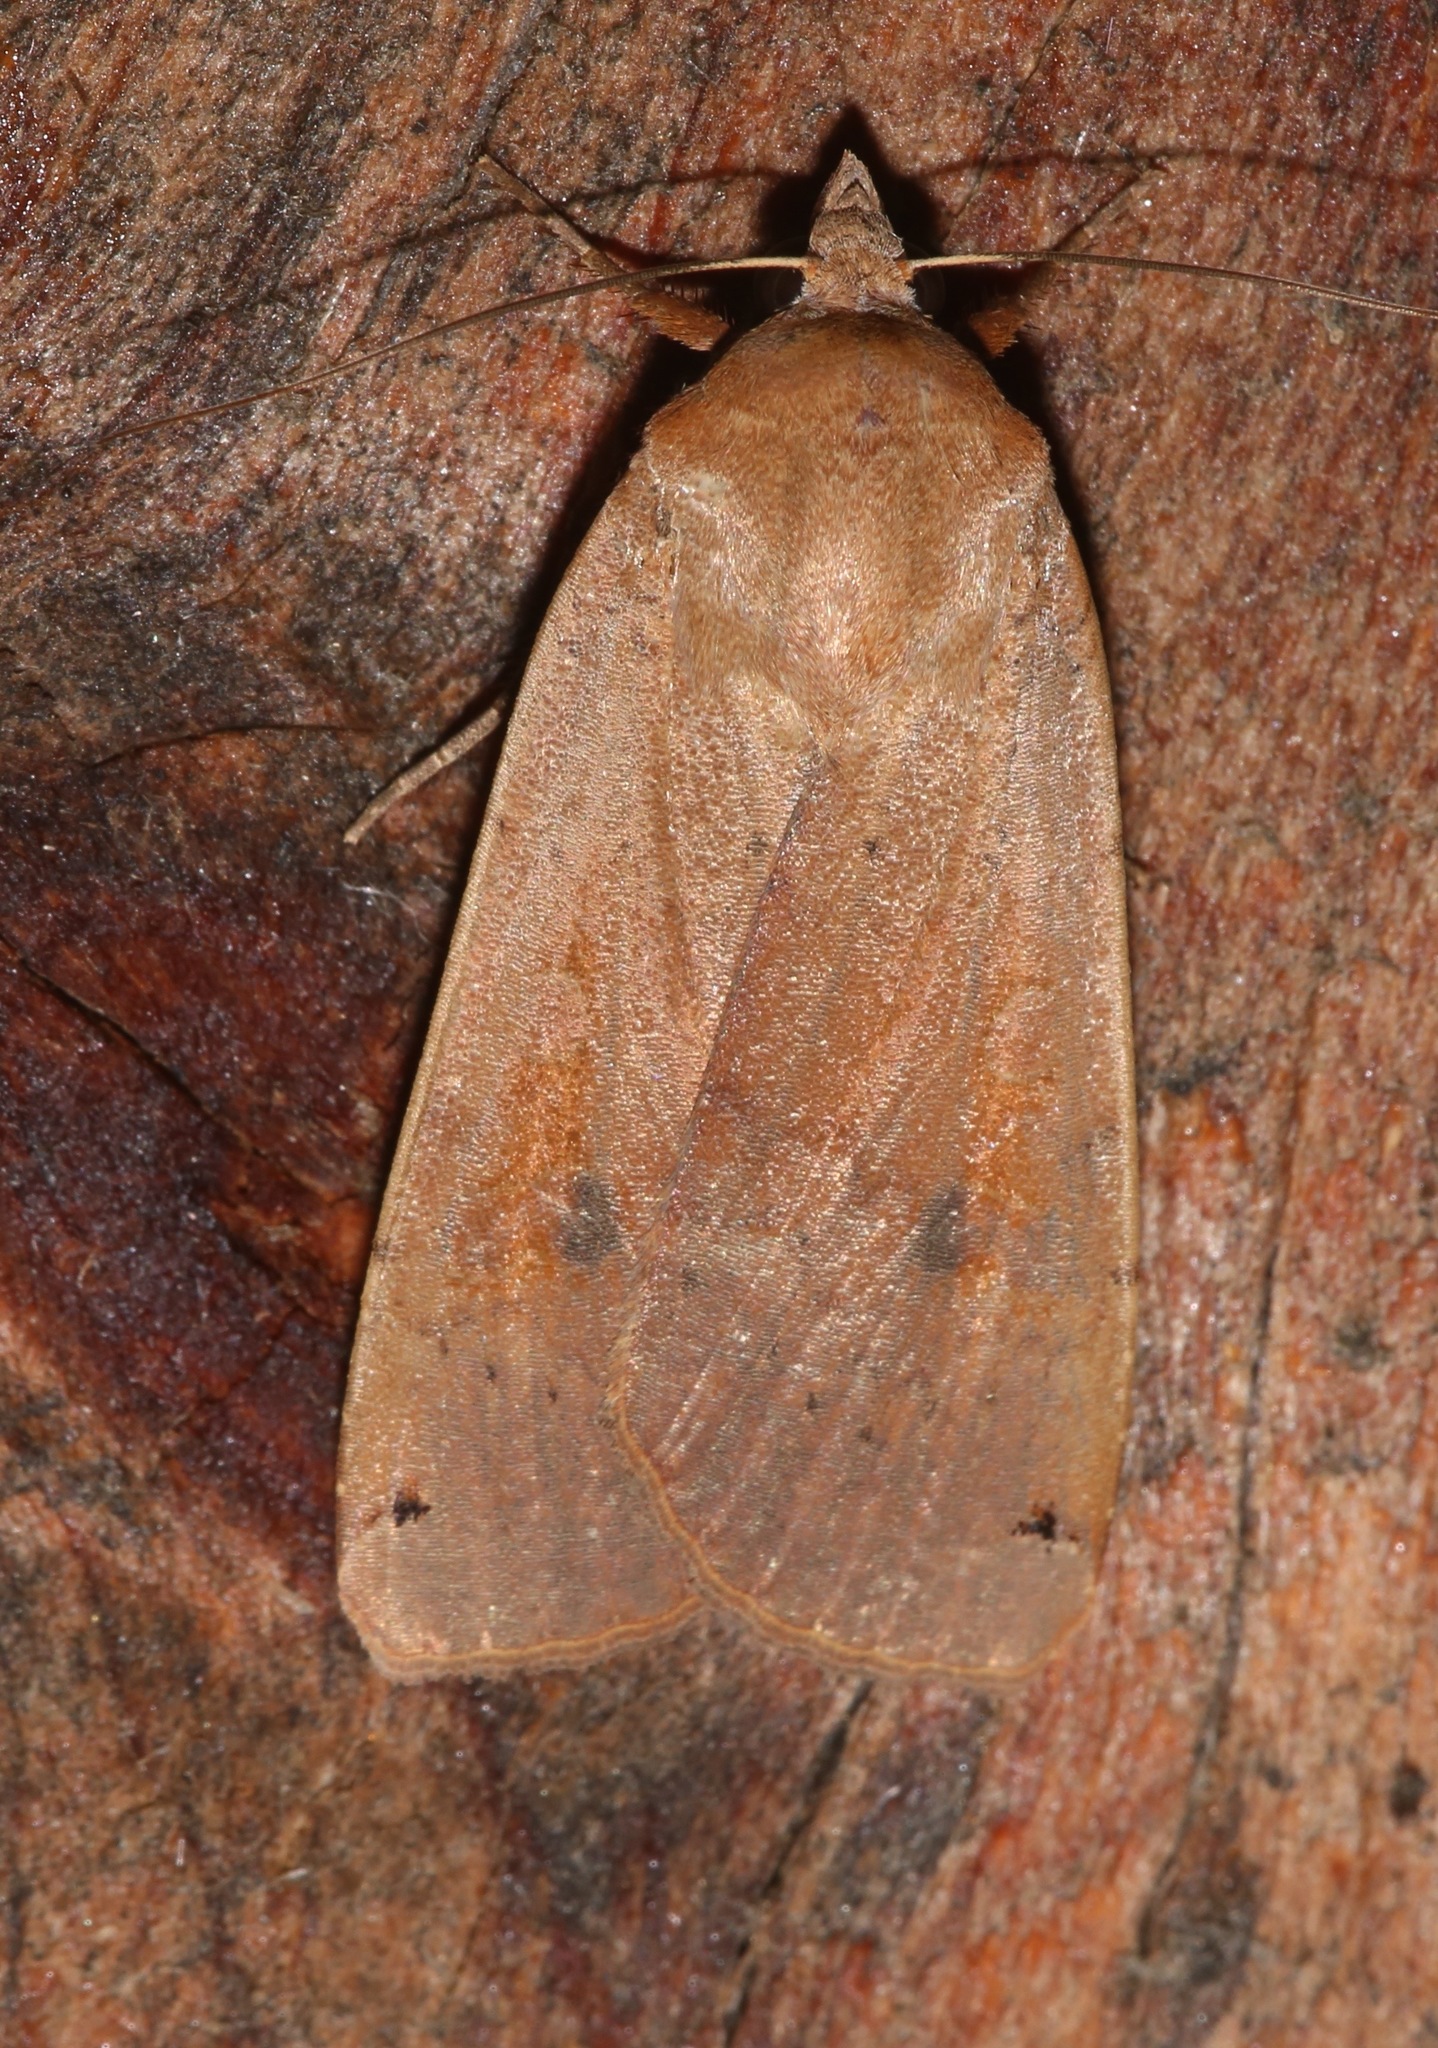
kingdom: Animalia
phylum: Arthropoda
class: Insecta
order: Lepidoptera
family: Noctuidae
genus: Noctua
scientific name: Noctua pronuba
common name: Large yellow underwing
